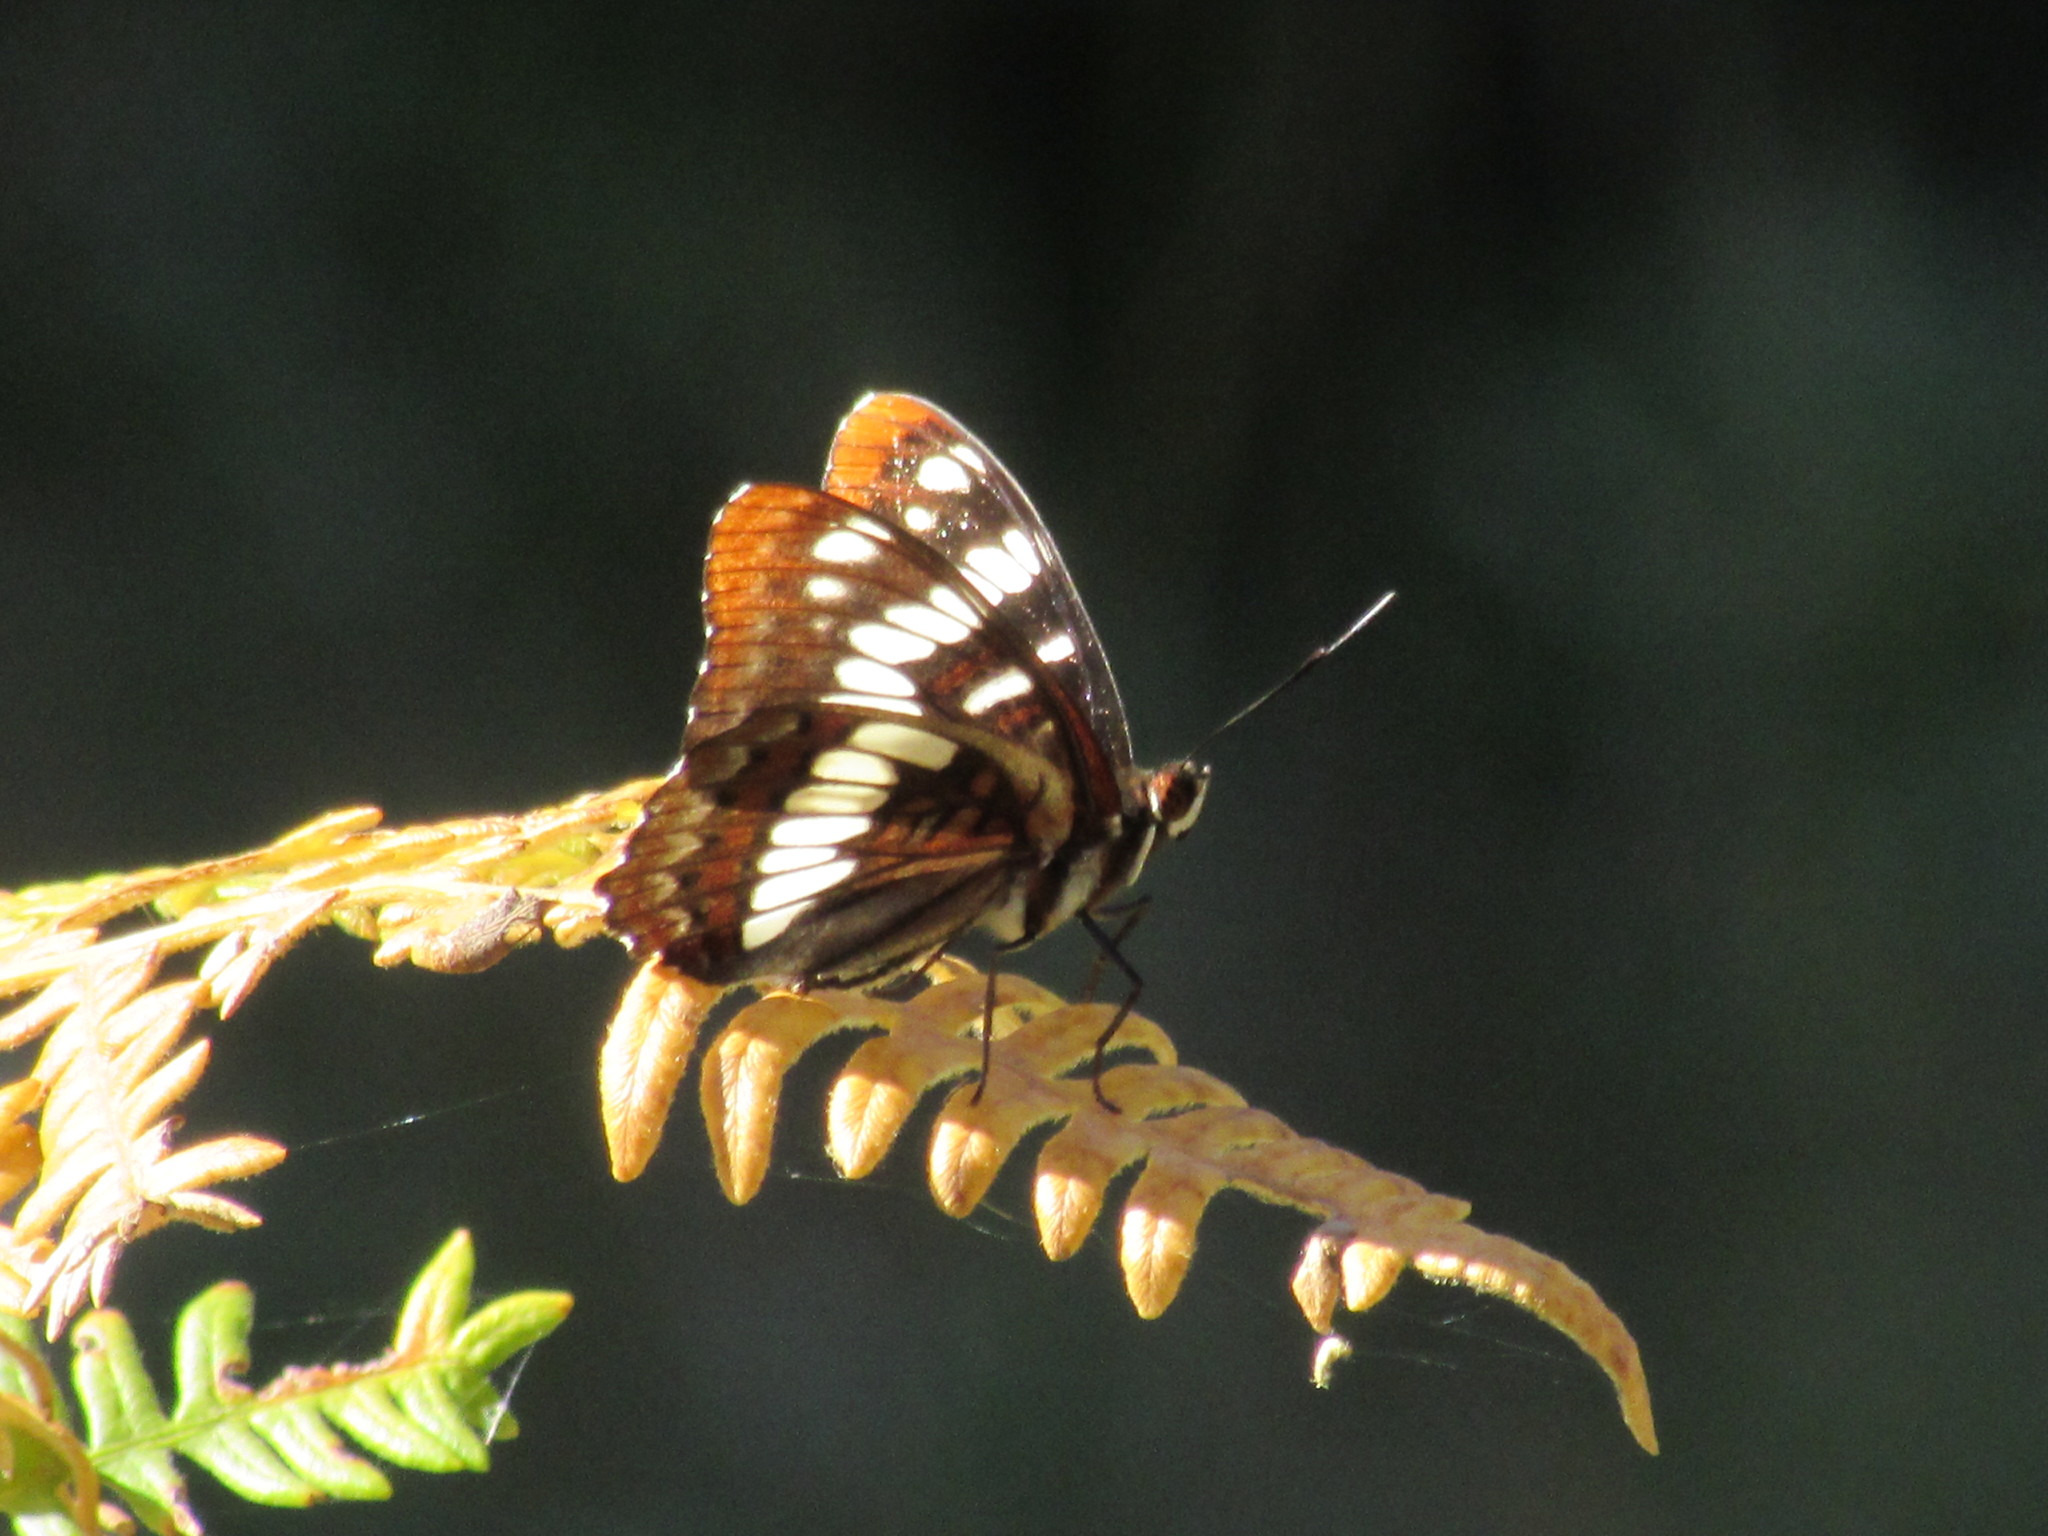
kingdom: Animalia
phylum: Arthropoda
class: Insecta
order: Lepidoptera
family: Nymphalidae
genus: Limenitis
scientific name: Limenitis lorquini
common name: Lorquin's admiral
